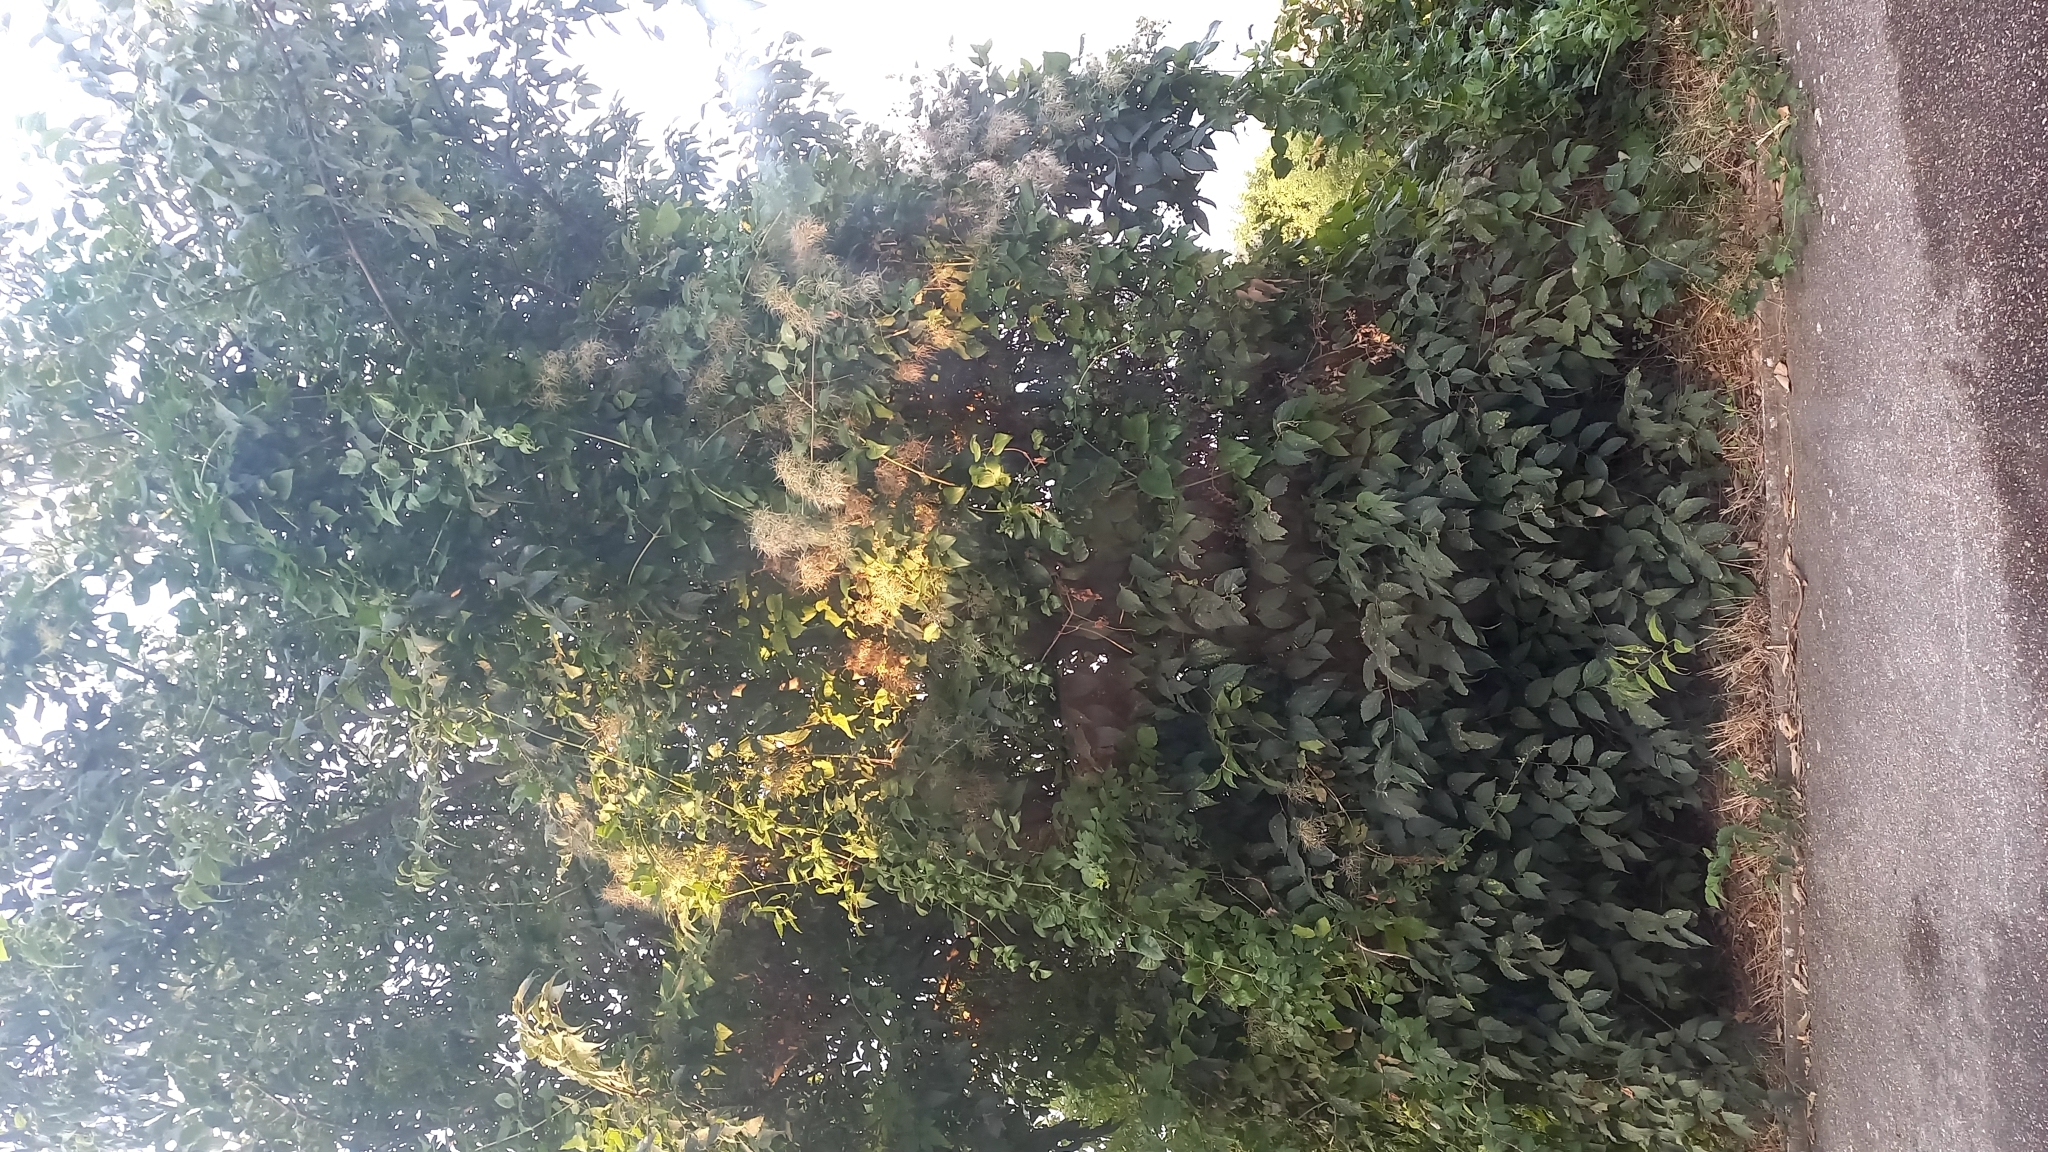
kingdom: Plantae
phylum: Tracheophyta
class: Magnoliopsida
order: Ranunculales
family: Ranunculaceae
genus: Clematis
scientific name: Clematis vitalba
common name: Evergreen clematis
